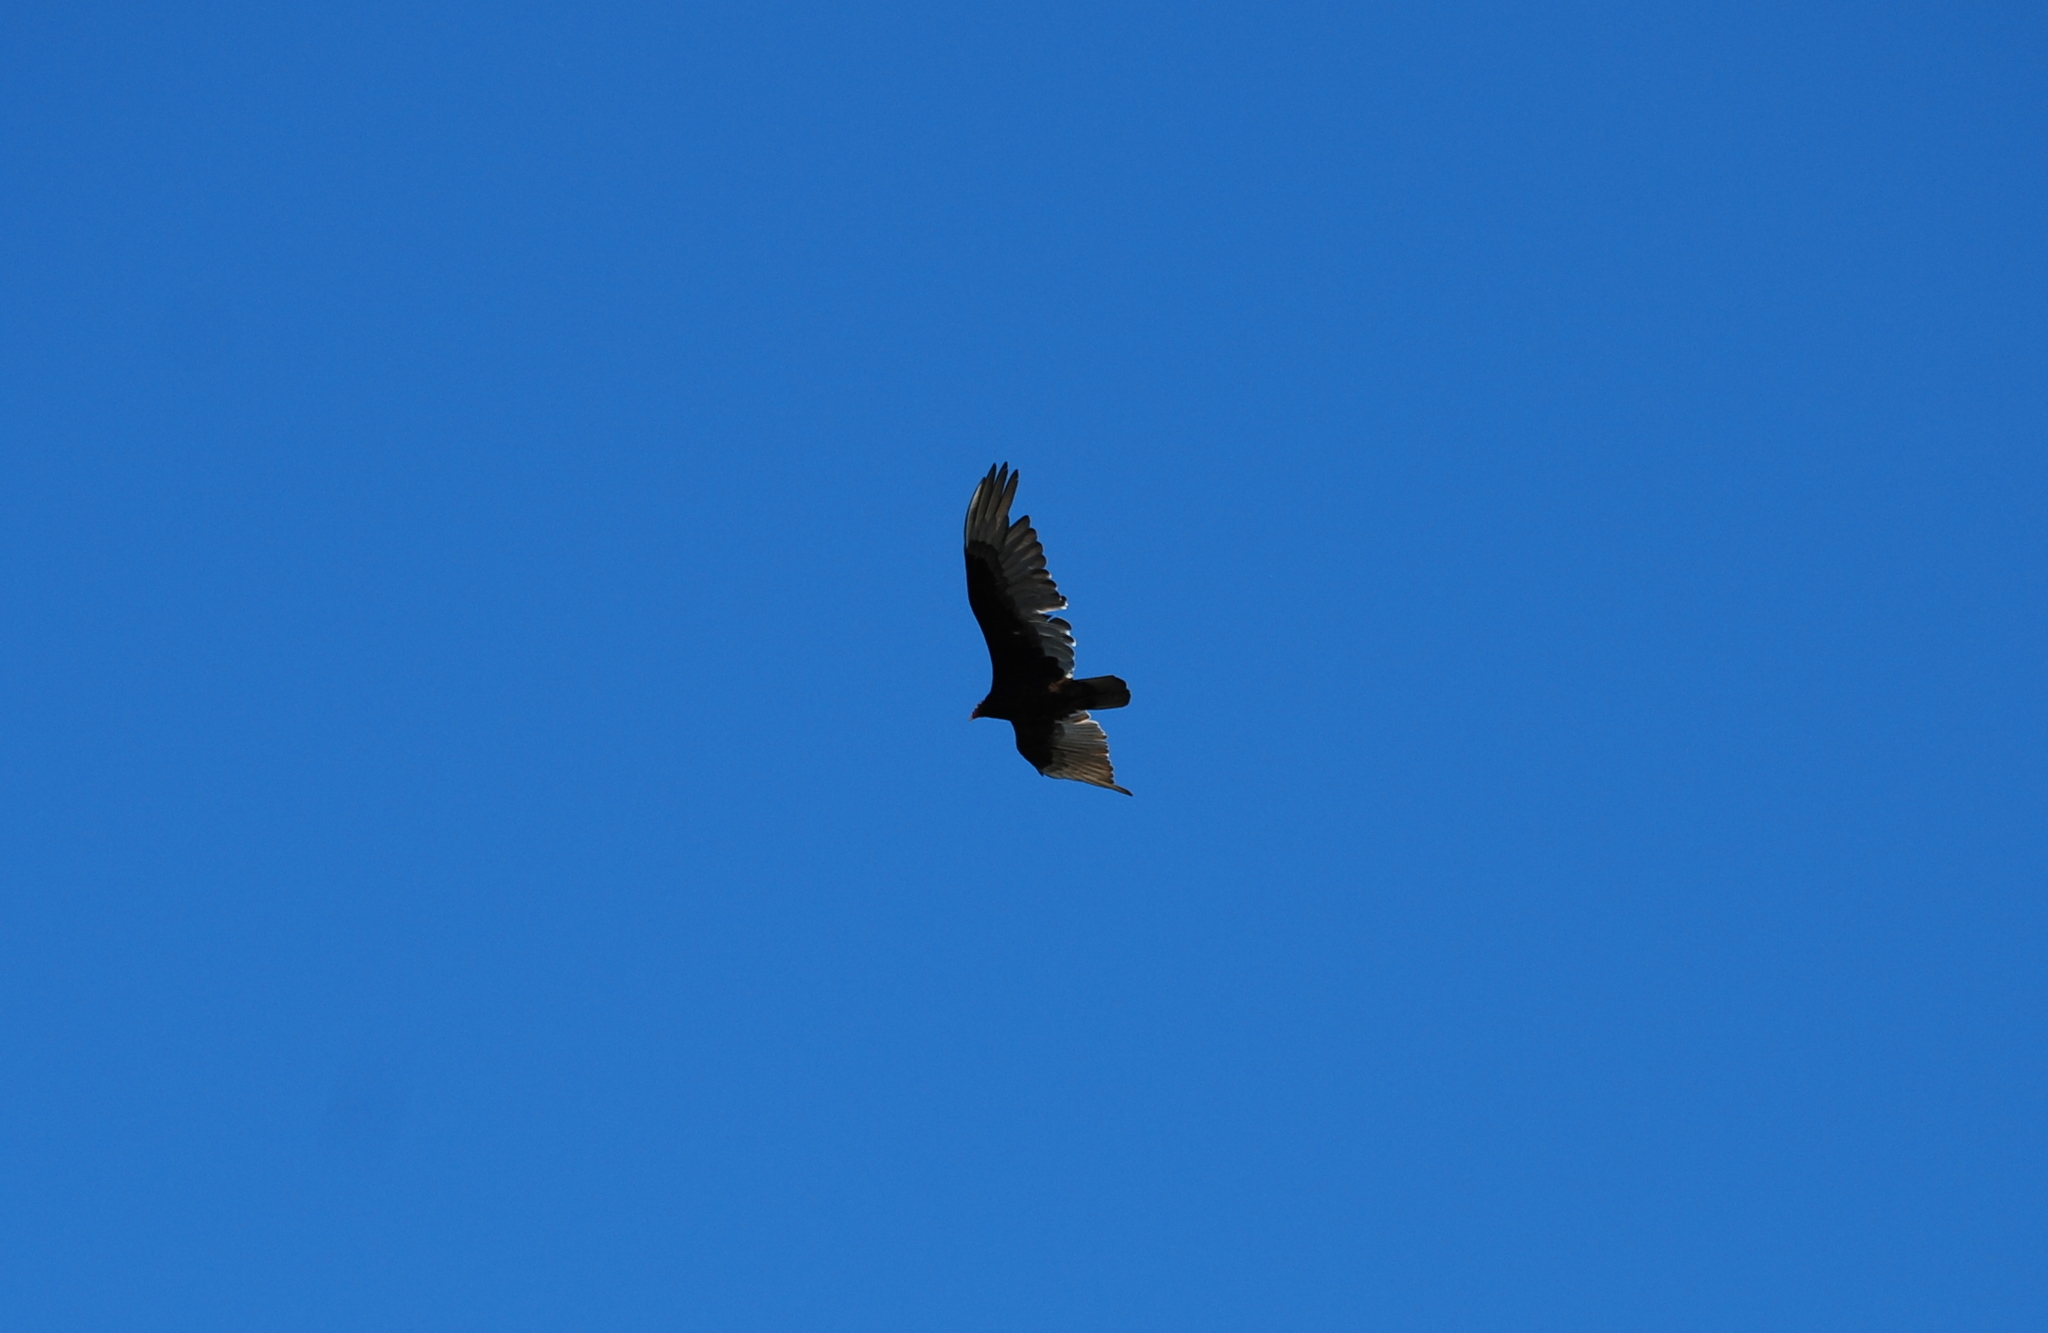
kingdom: Animalia
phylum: Chordata
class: Aves
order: Accipitriformes
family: Cathartidae
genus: Cathartes
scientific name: Cathartes aura
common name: Turkey vulture
